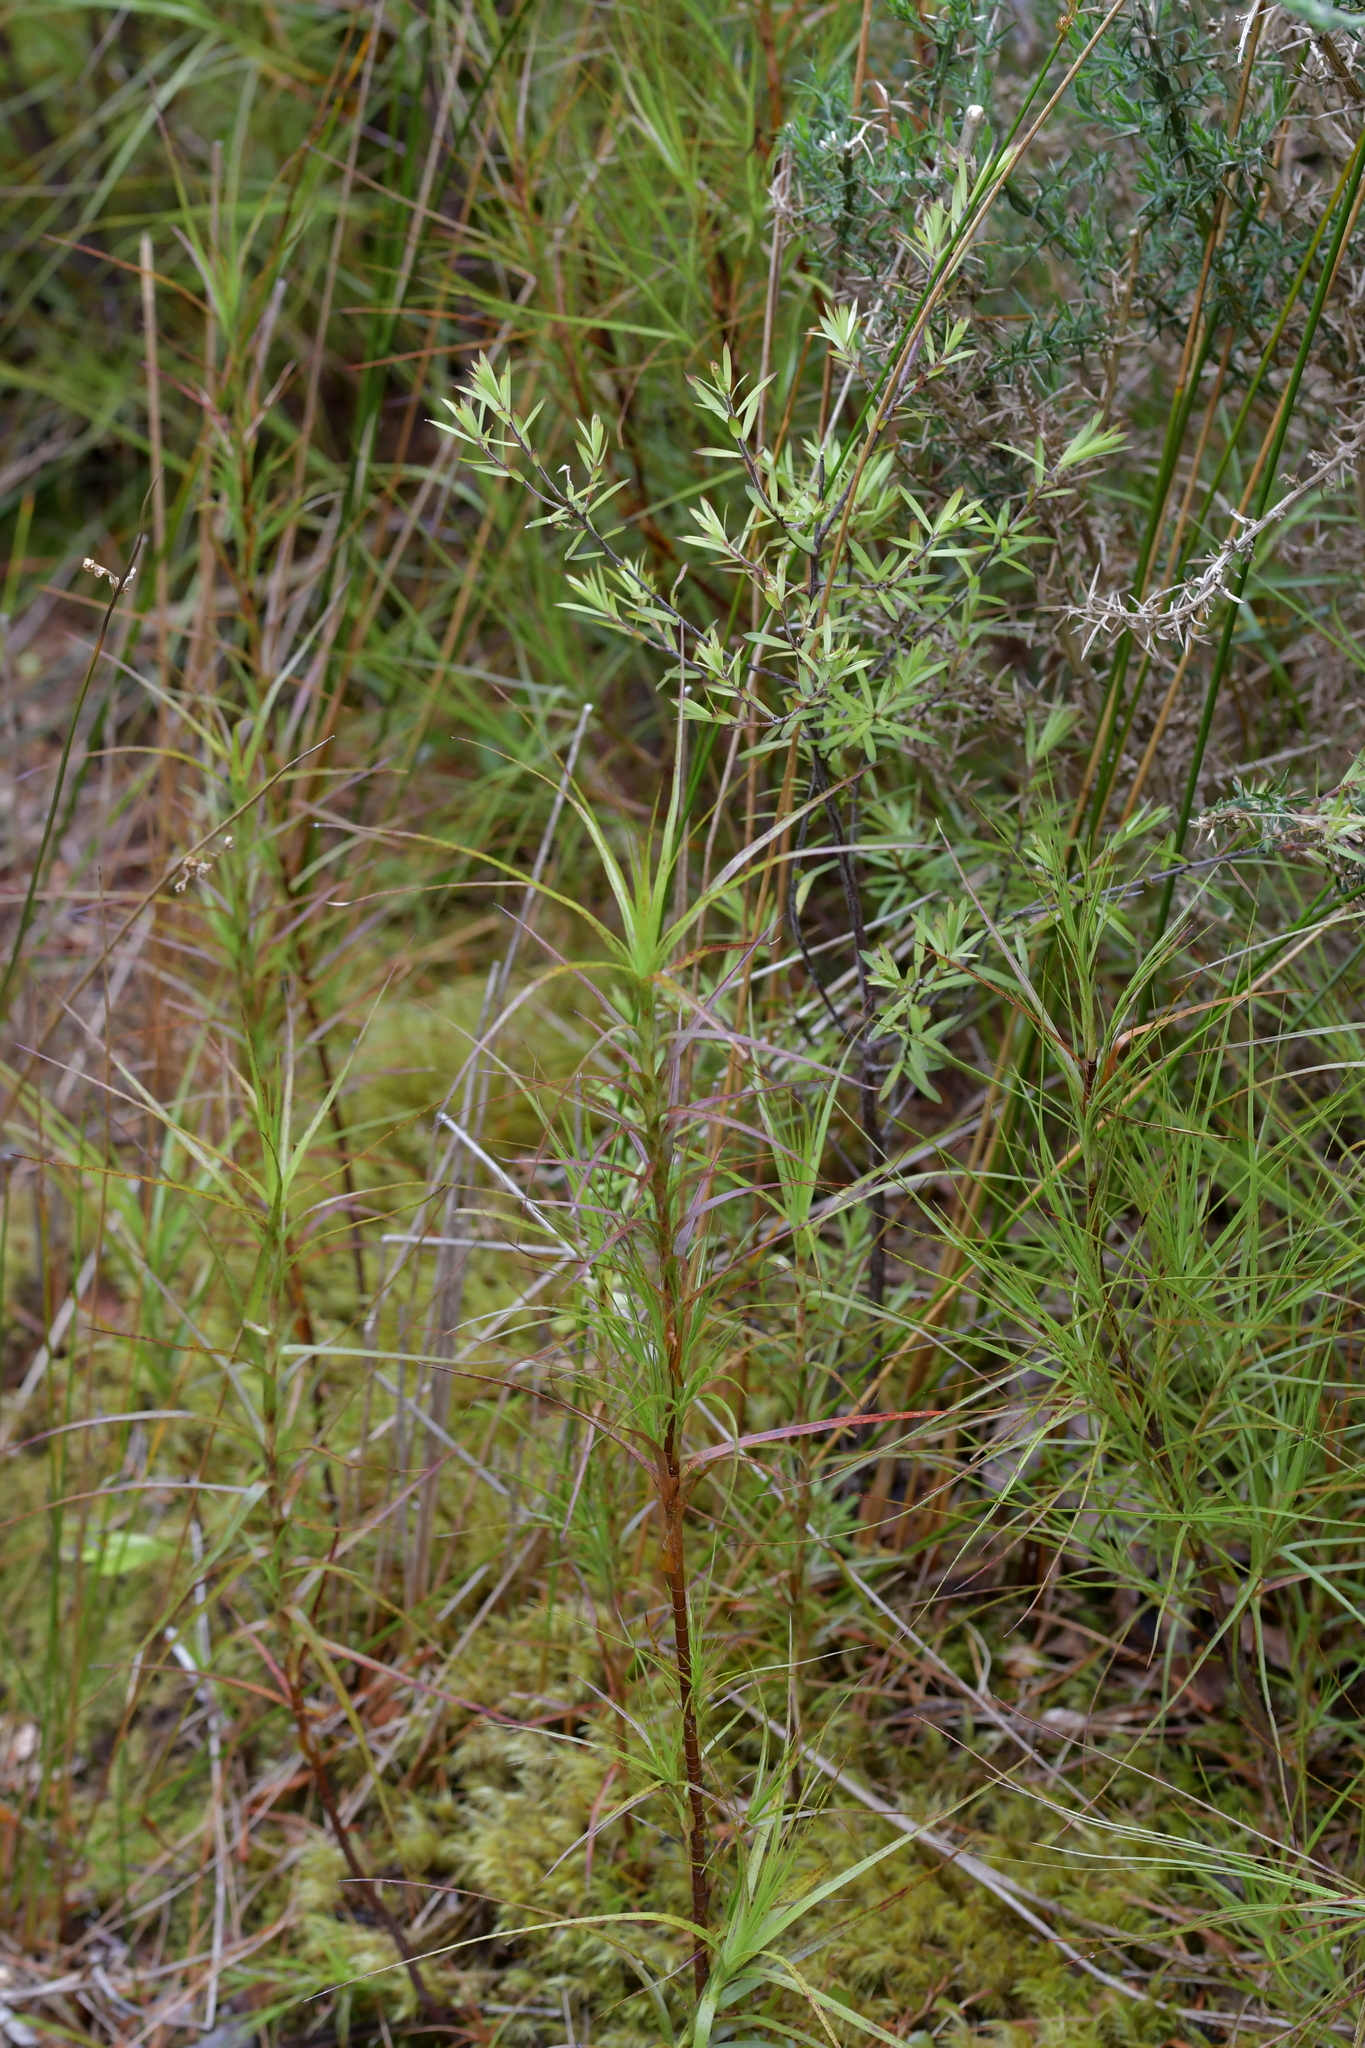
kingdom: Plantae
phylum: Tracheophyta
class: Magnoliopsida
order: Ericales
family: Ericaceae
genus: Dracophyllum
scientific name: Dracophyllum filifolium
